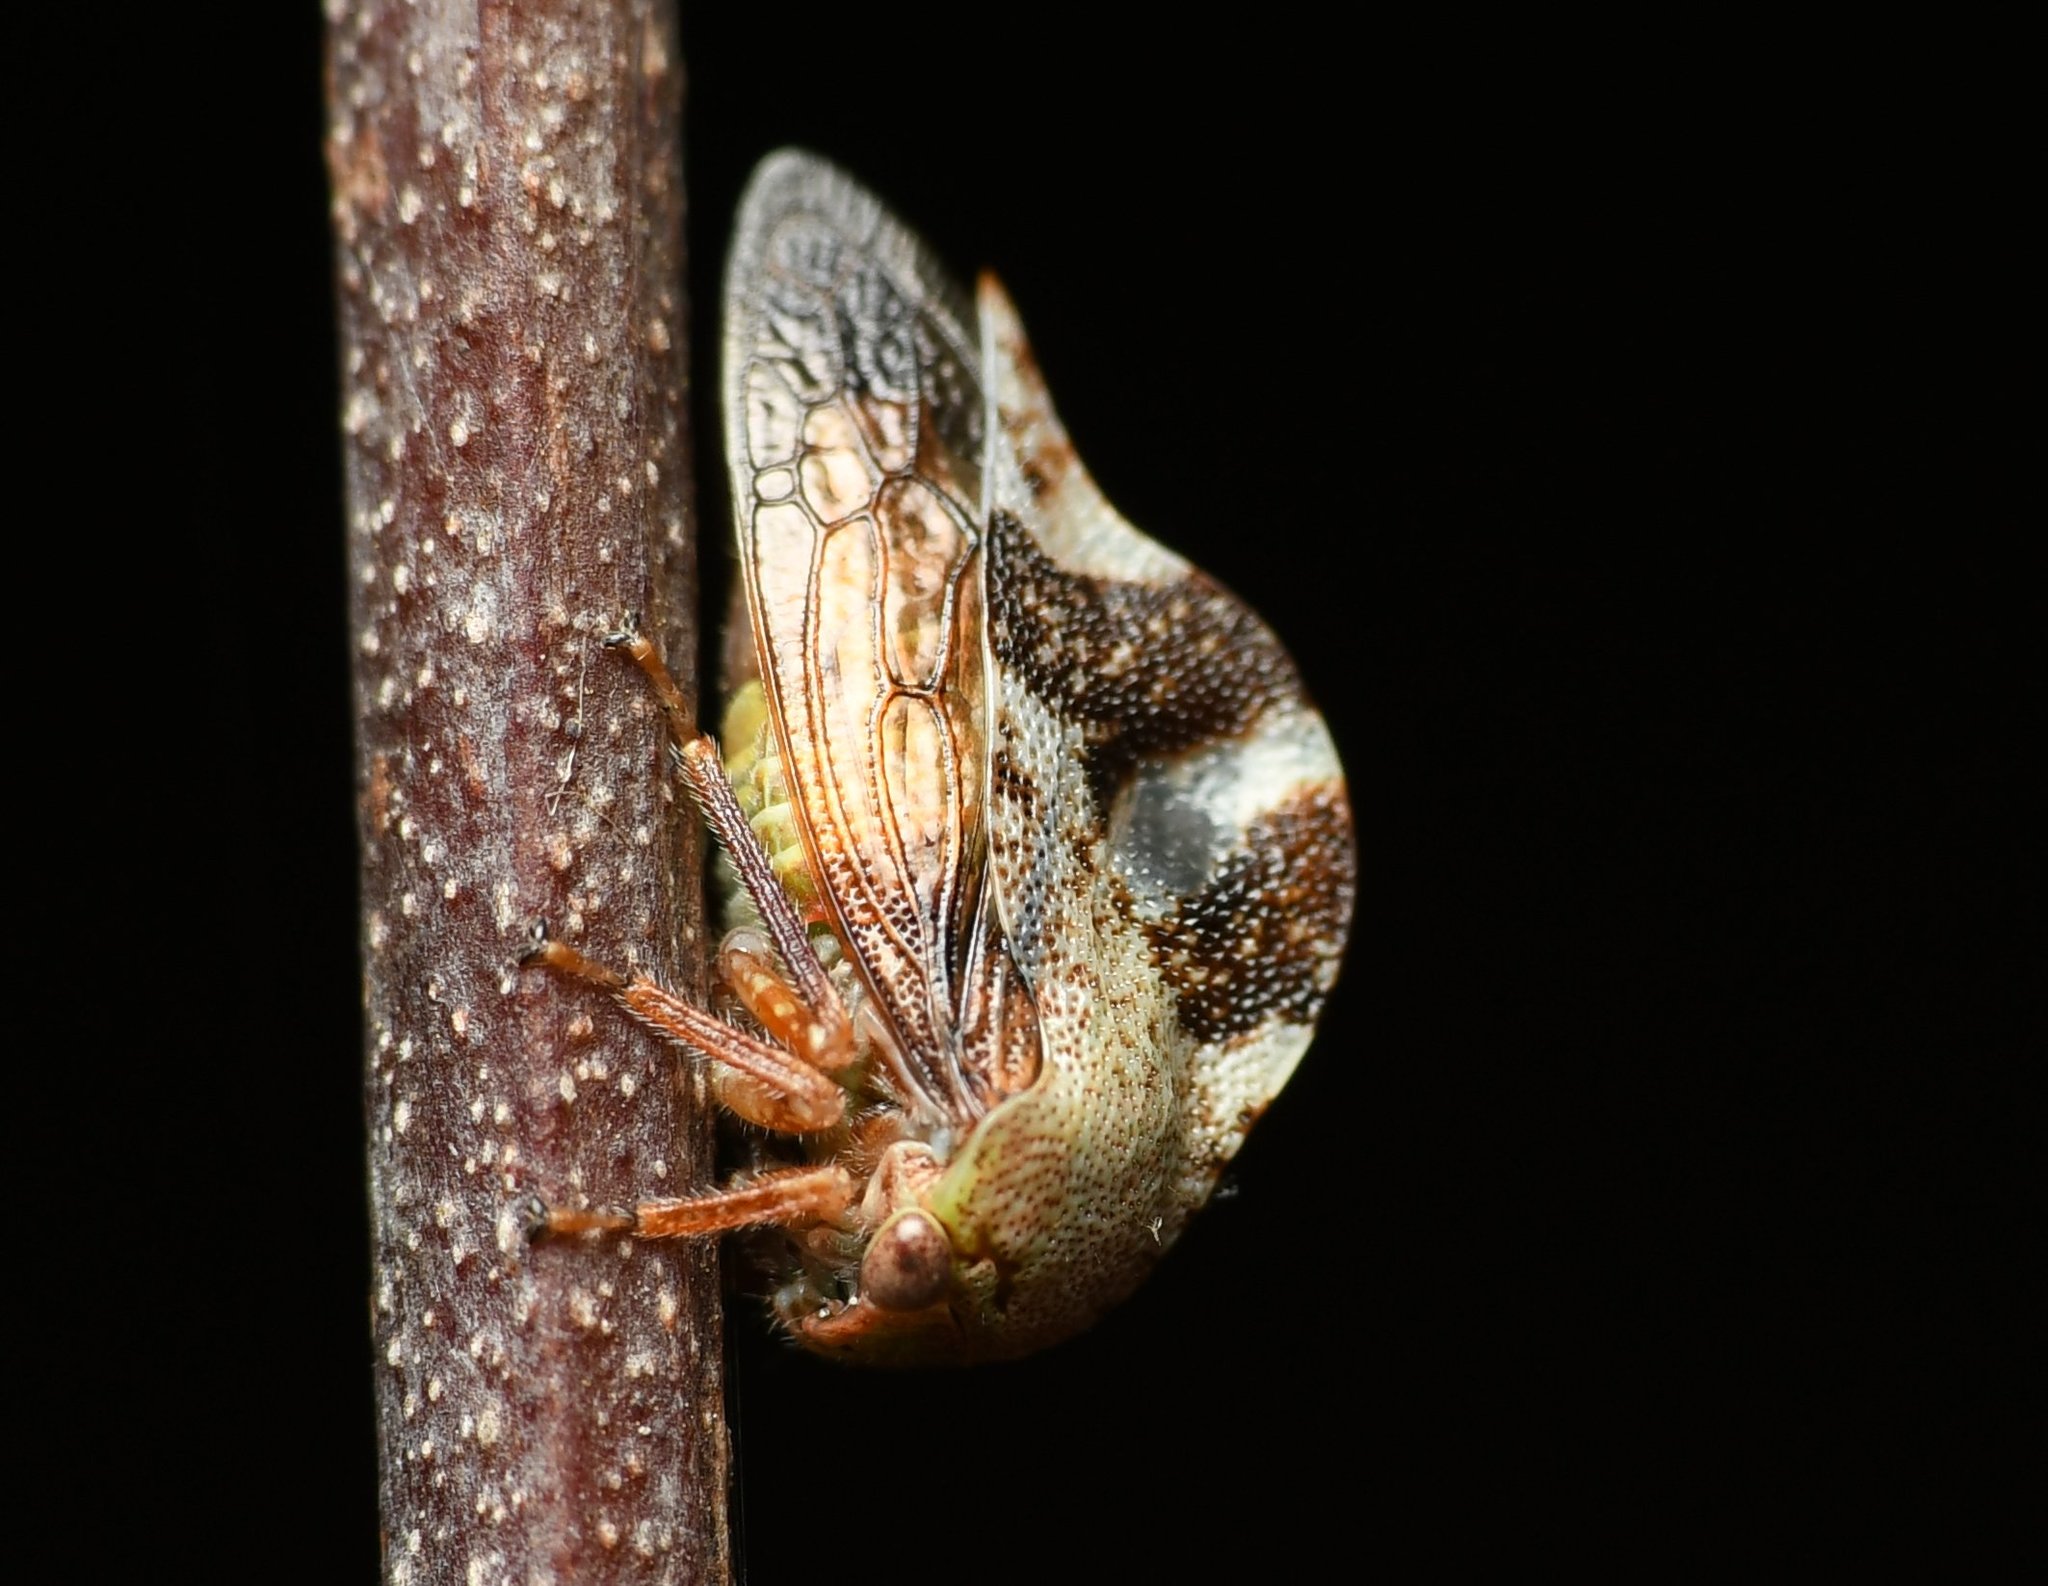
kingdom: Animalia
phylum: Arthropoda
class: Insecta
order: Hemiptera
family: Membracidae
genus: Cyrtolobus
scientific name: Cyrtolobus tuberosa
